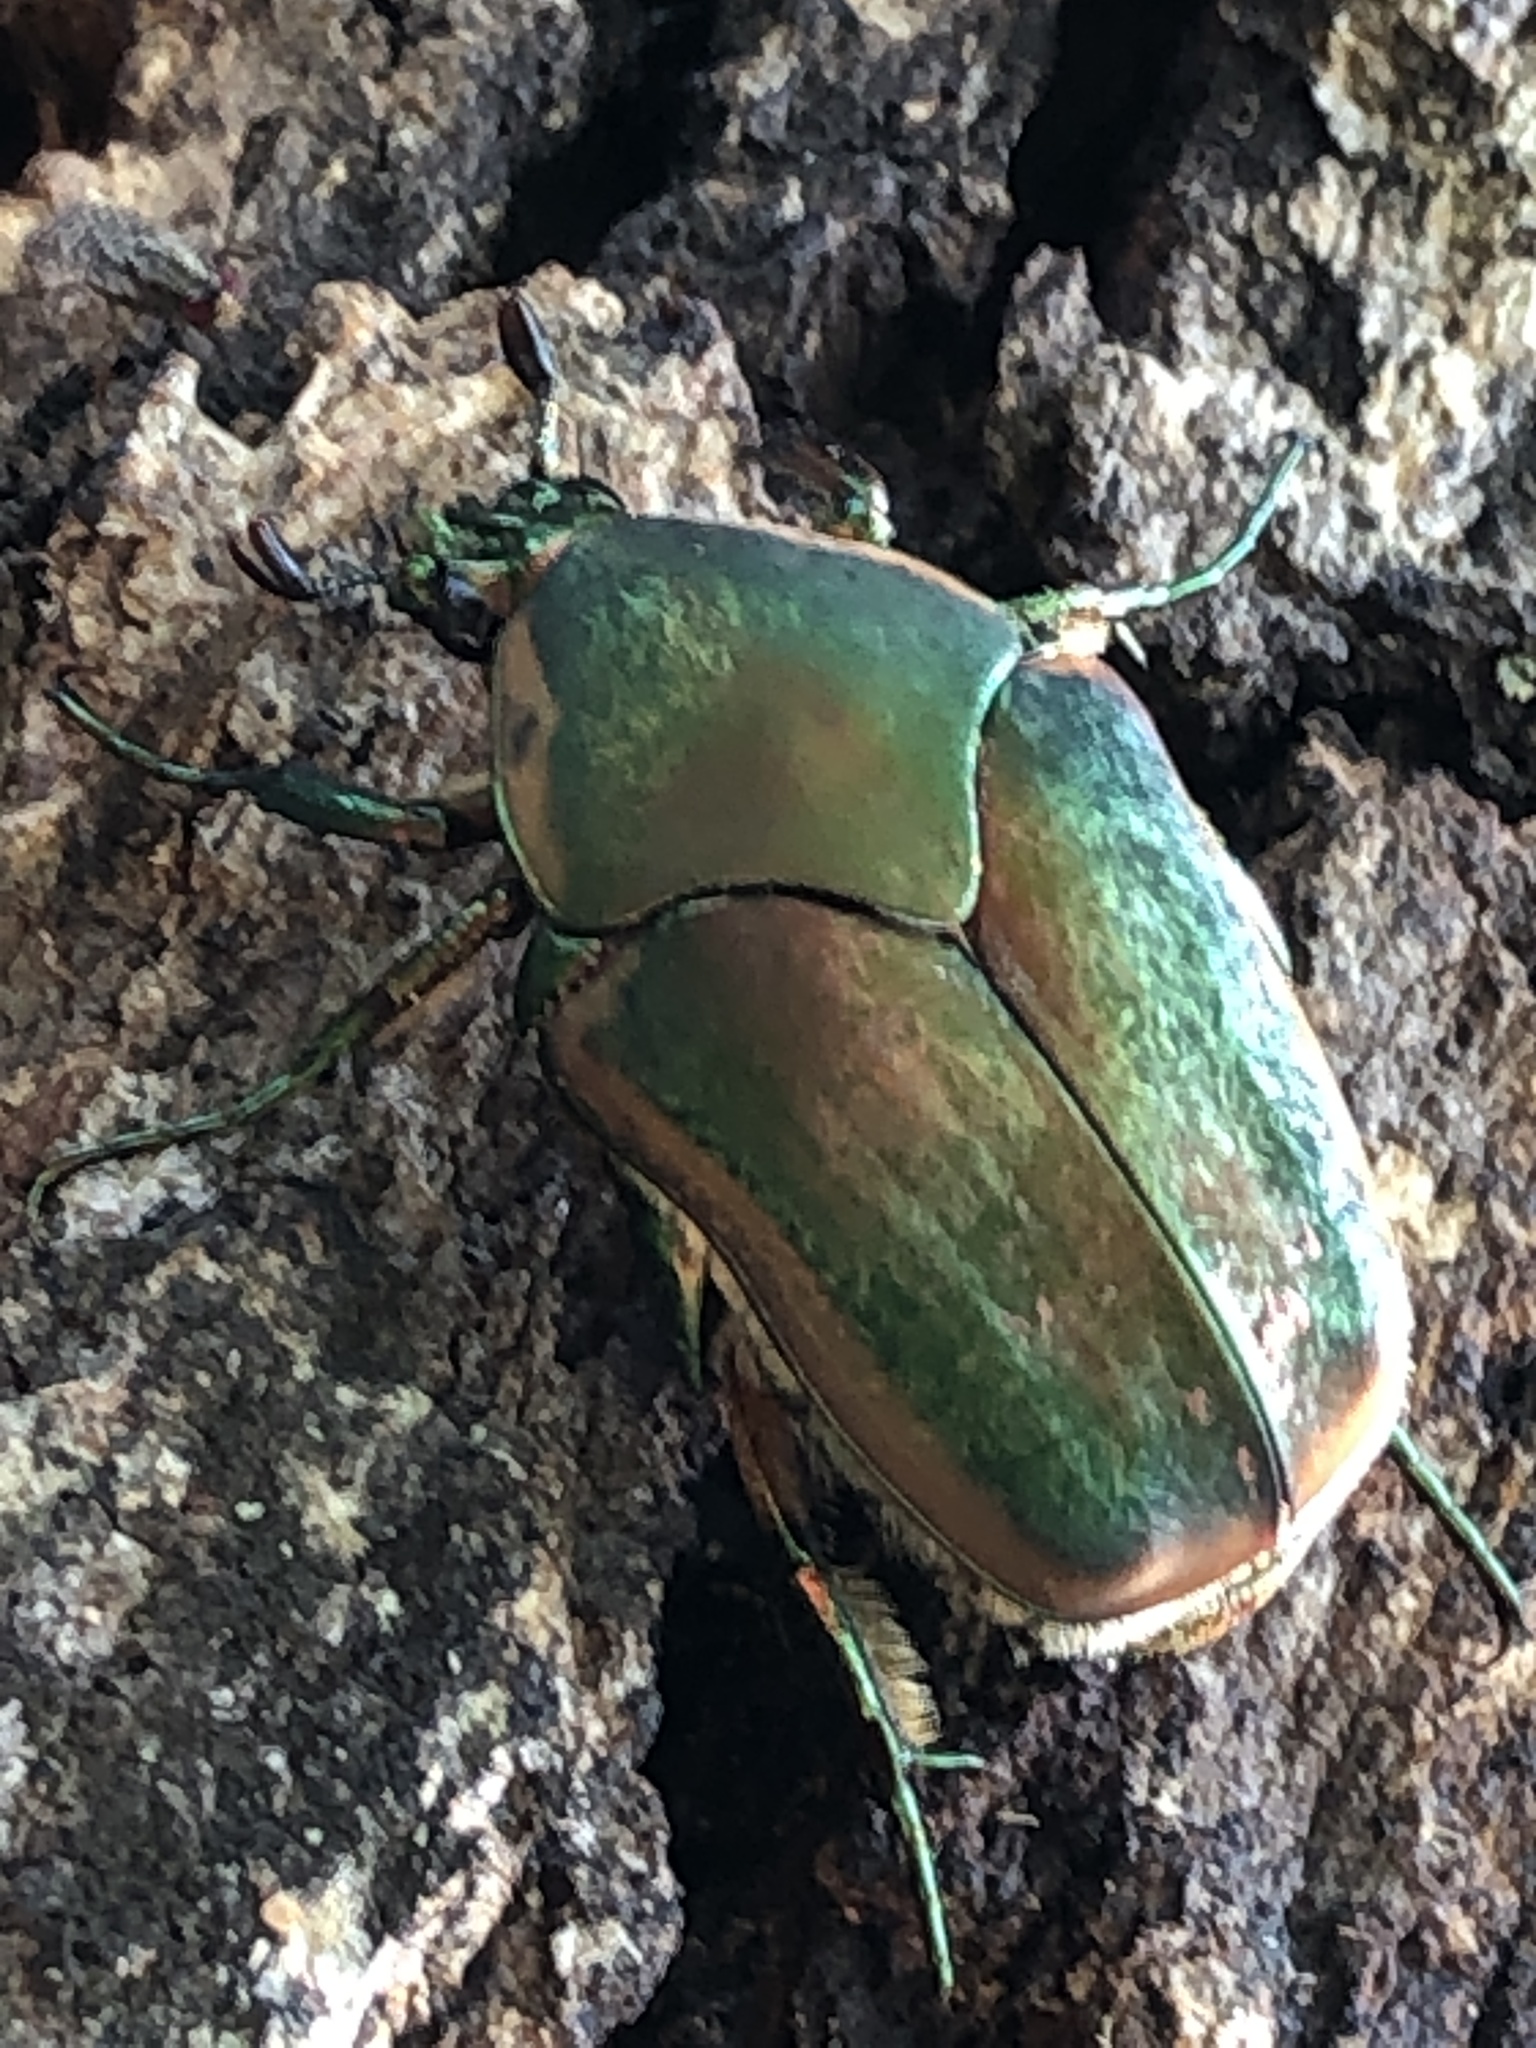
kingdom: Animalia
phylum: Arthropoda
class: Insecta
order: Coleoptera
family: Scarabaeidae
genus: Cotinis
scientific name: Cotinis nitida
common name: Common green june beetle
